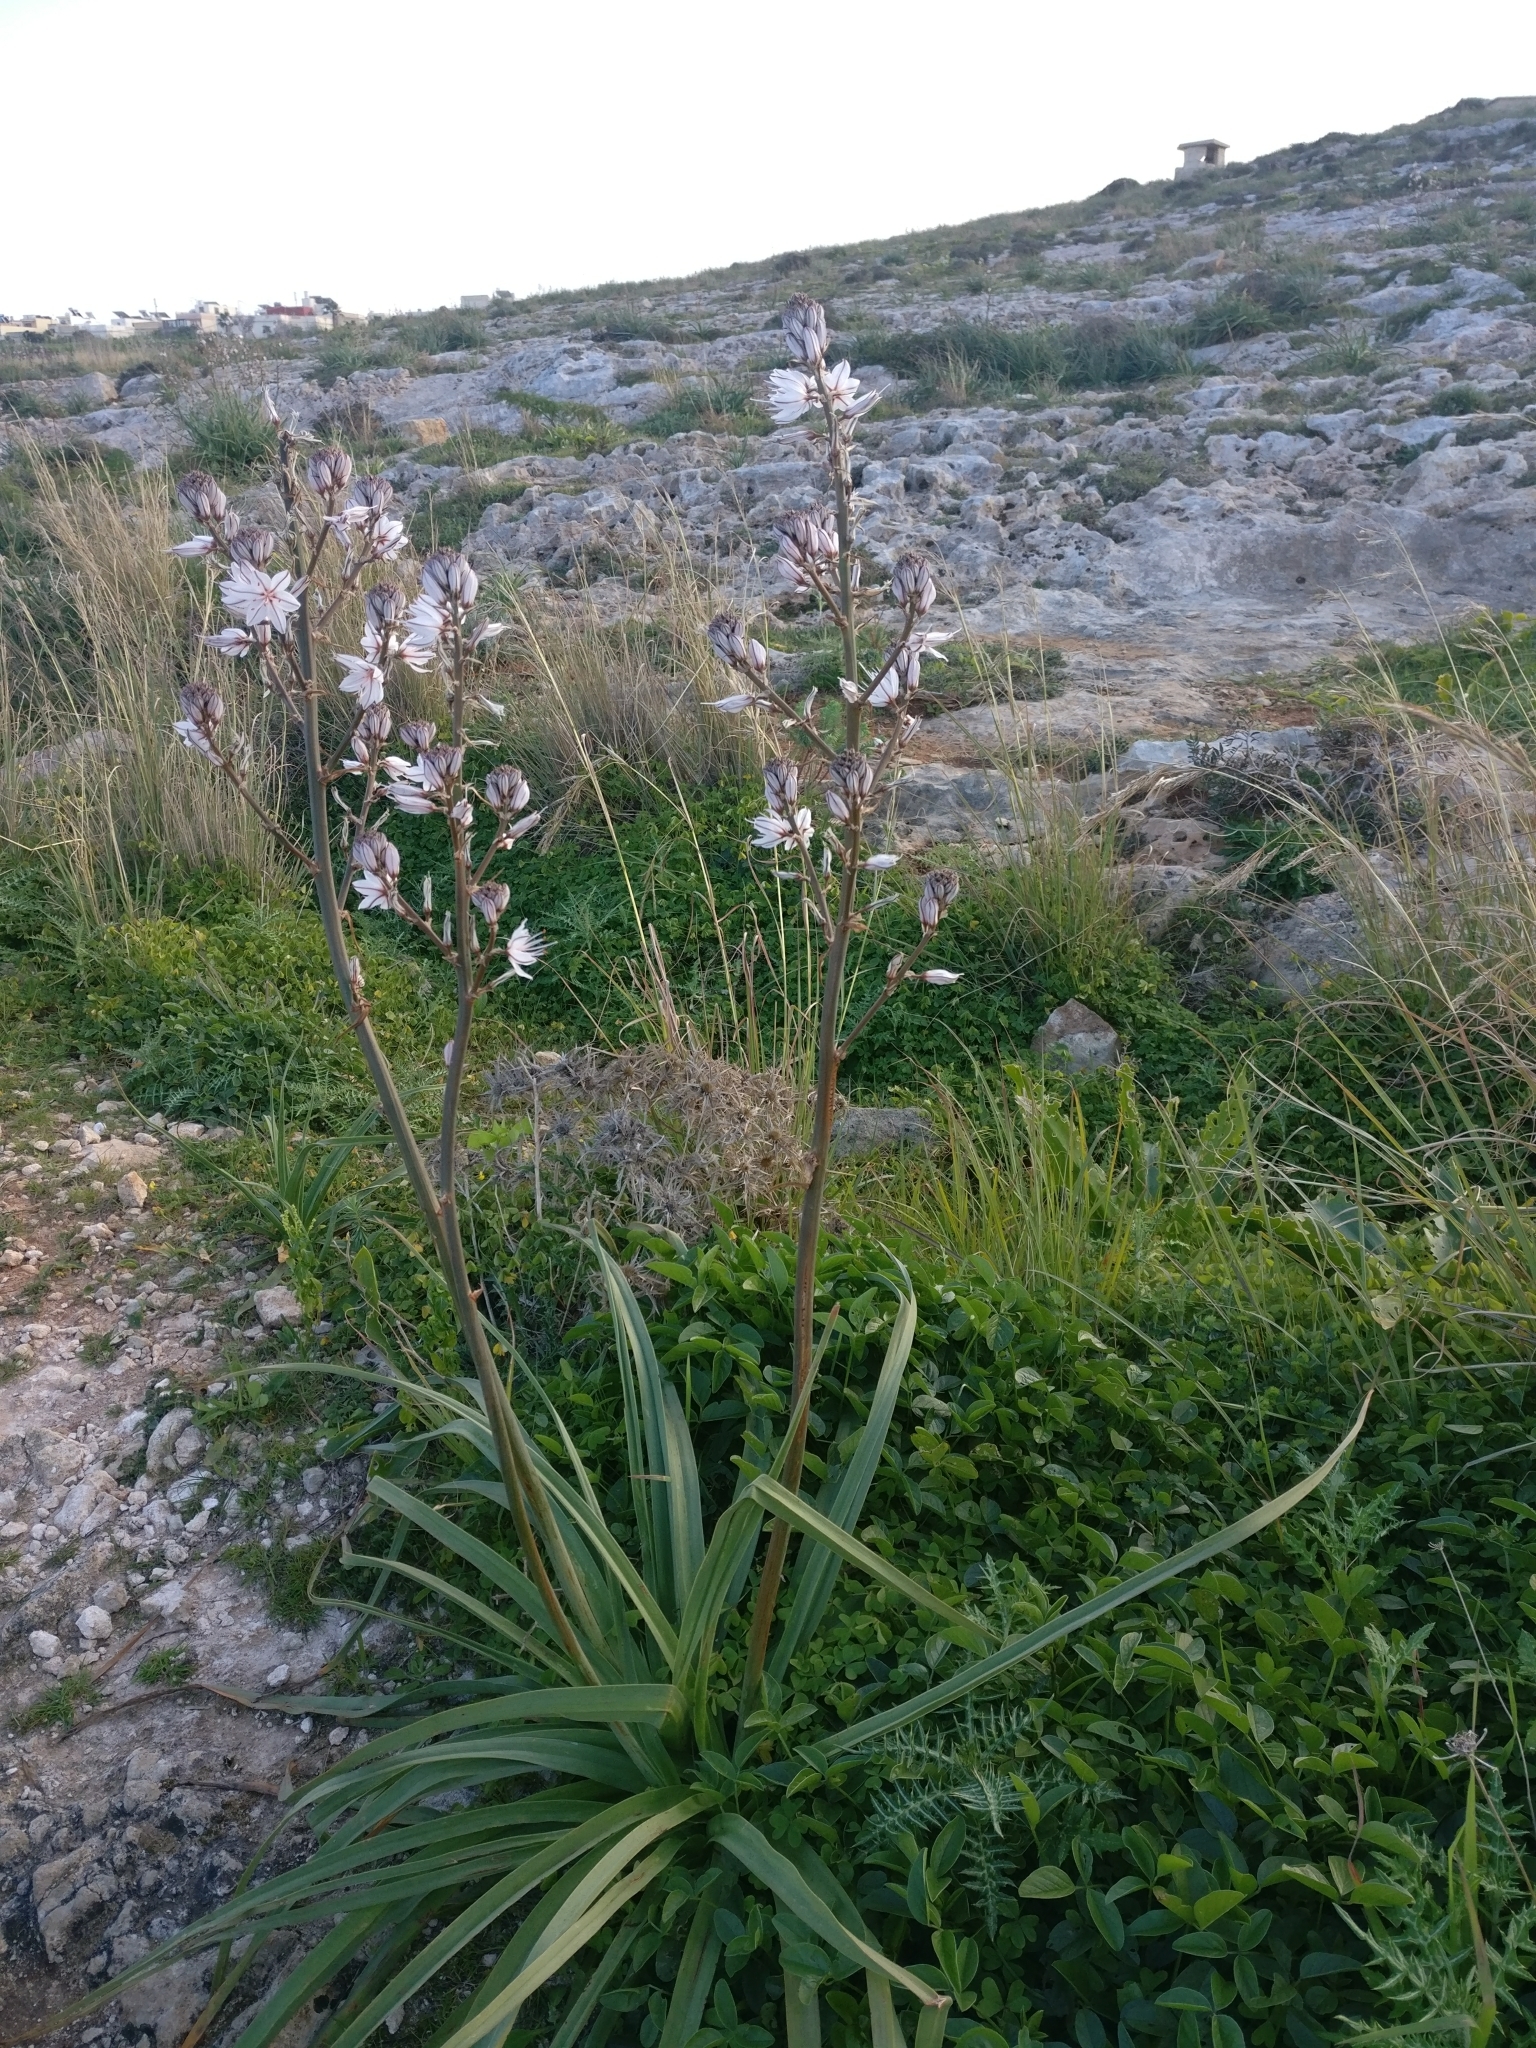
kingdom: Plantae
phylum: Tracheophyta
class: Liliopsida
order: Asparagales
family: Asphodelaceae
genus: Asphodelus
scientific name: Asphodelus ramosus
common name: Silverrod
